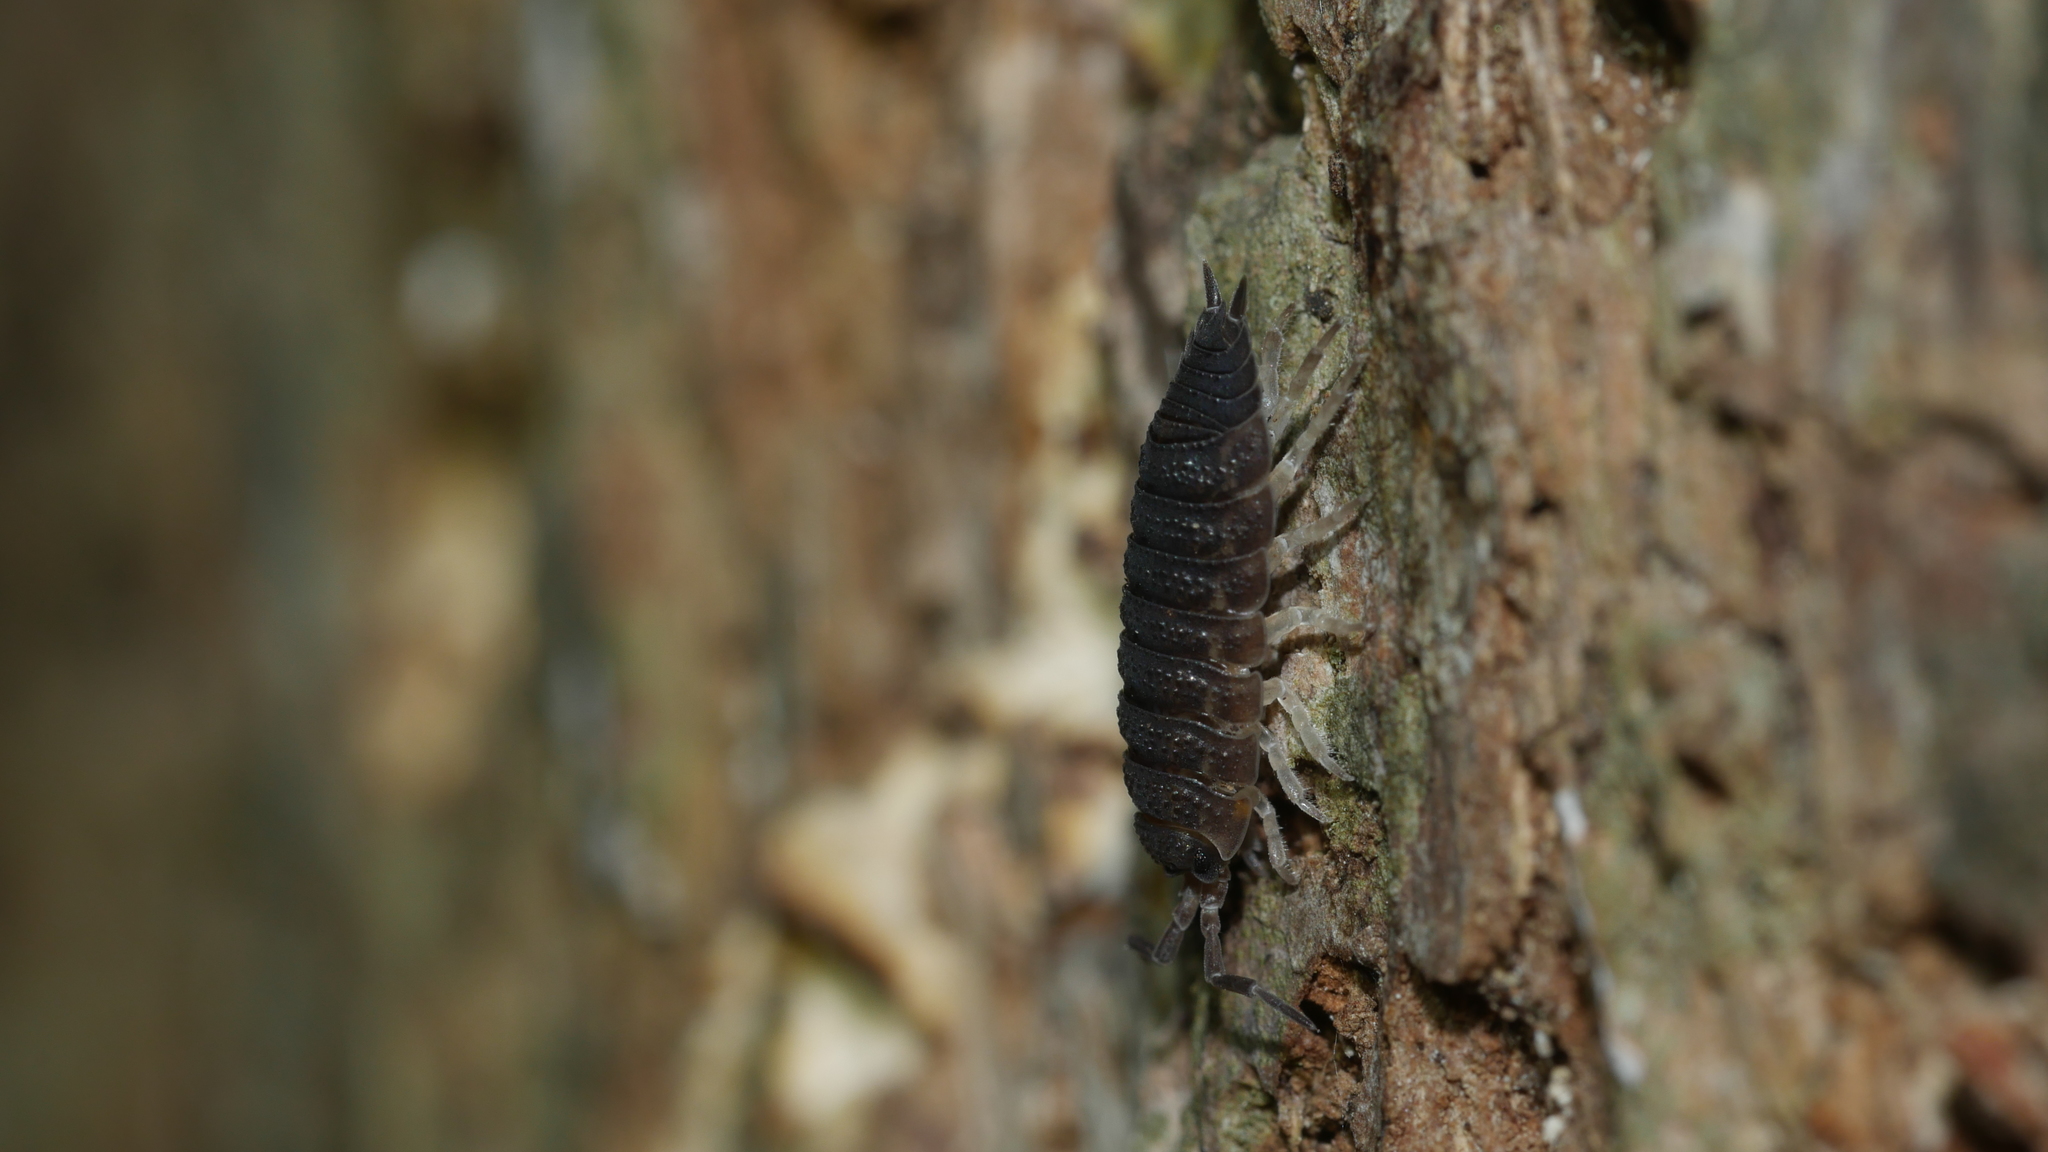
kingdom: Animalia
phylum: Arthropoda
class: Malacostraca
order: Isopoda
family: Porcellionidae
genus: Porcellio
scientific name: Porcellio scaber
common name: Common rough woodlouse
